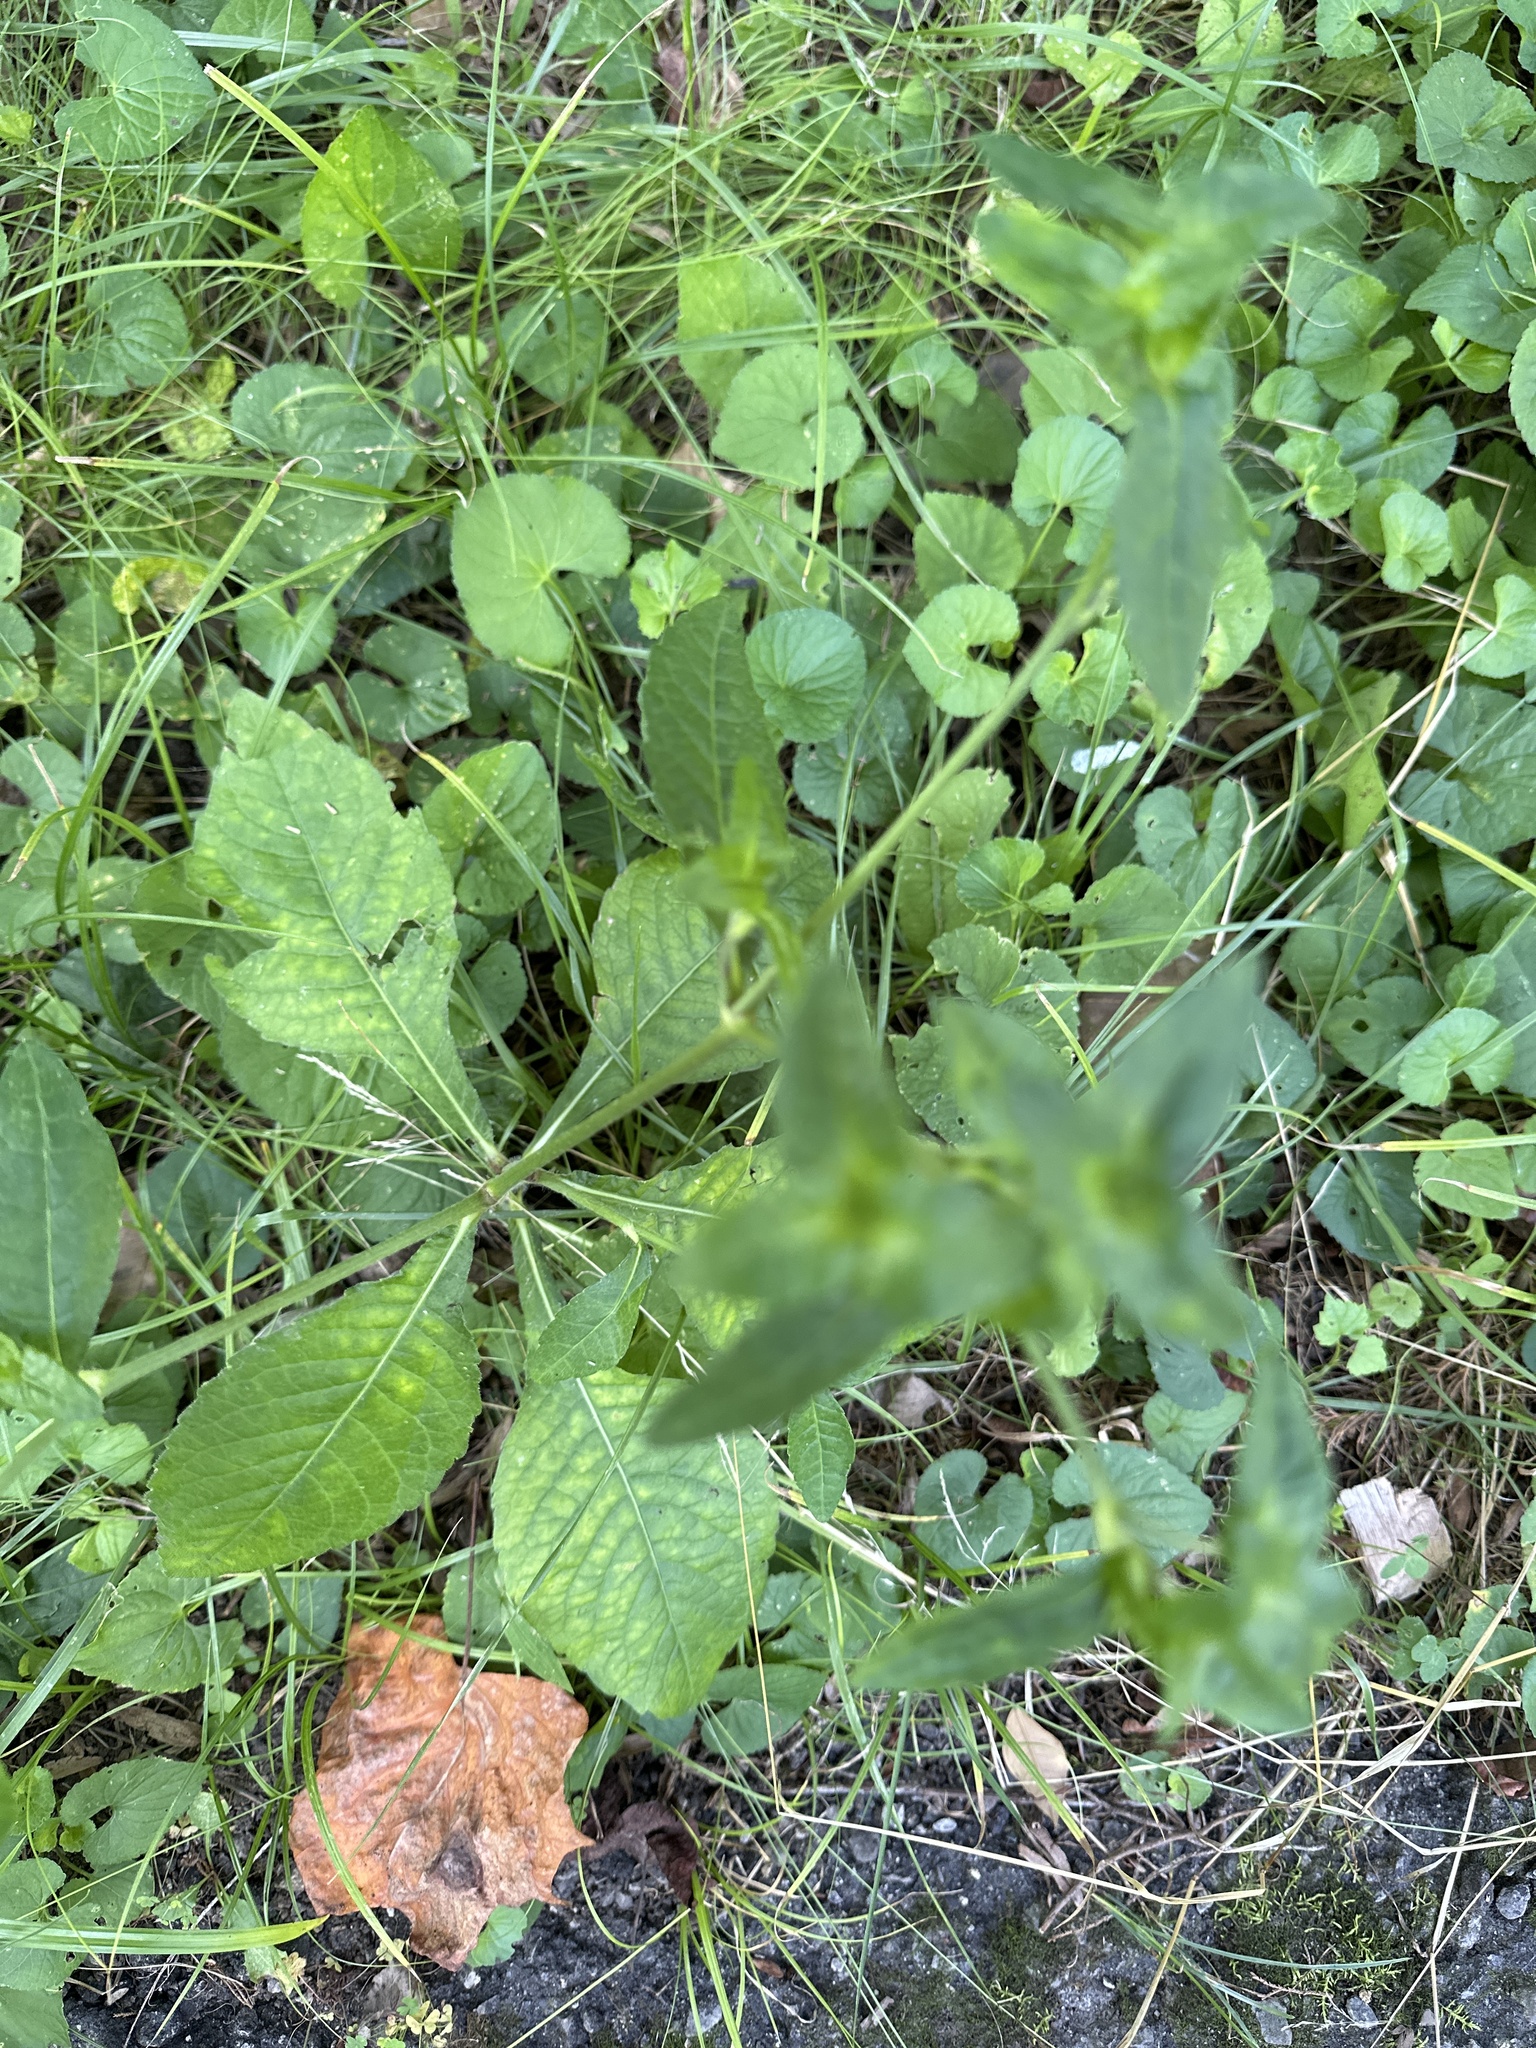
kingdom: Plantae
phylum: Tracheophyta
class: Magnoliopsida
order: Asterales
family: Asteraceae
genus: Elephantopus
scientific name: Elephantopus tomentosus
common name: Tobacco-weed
